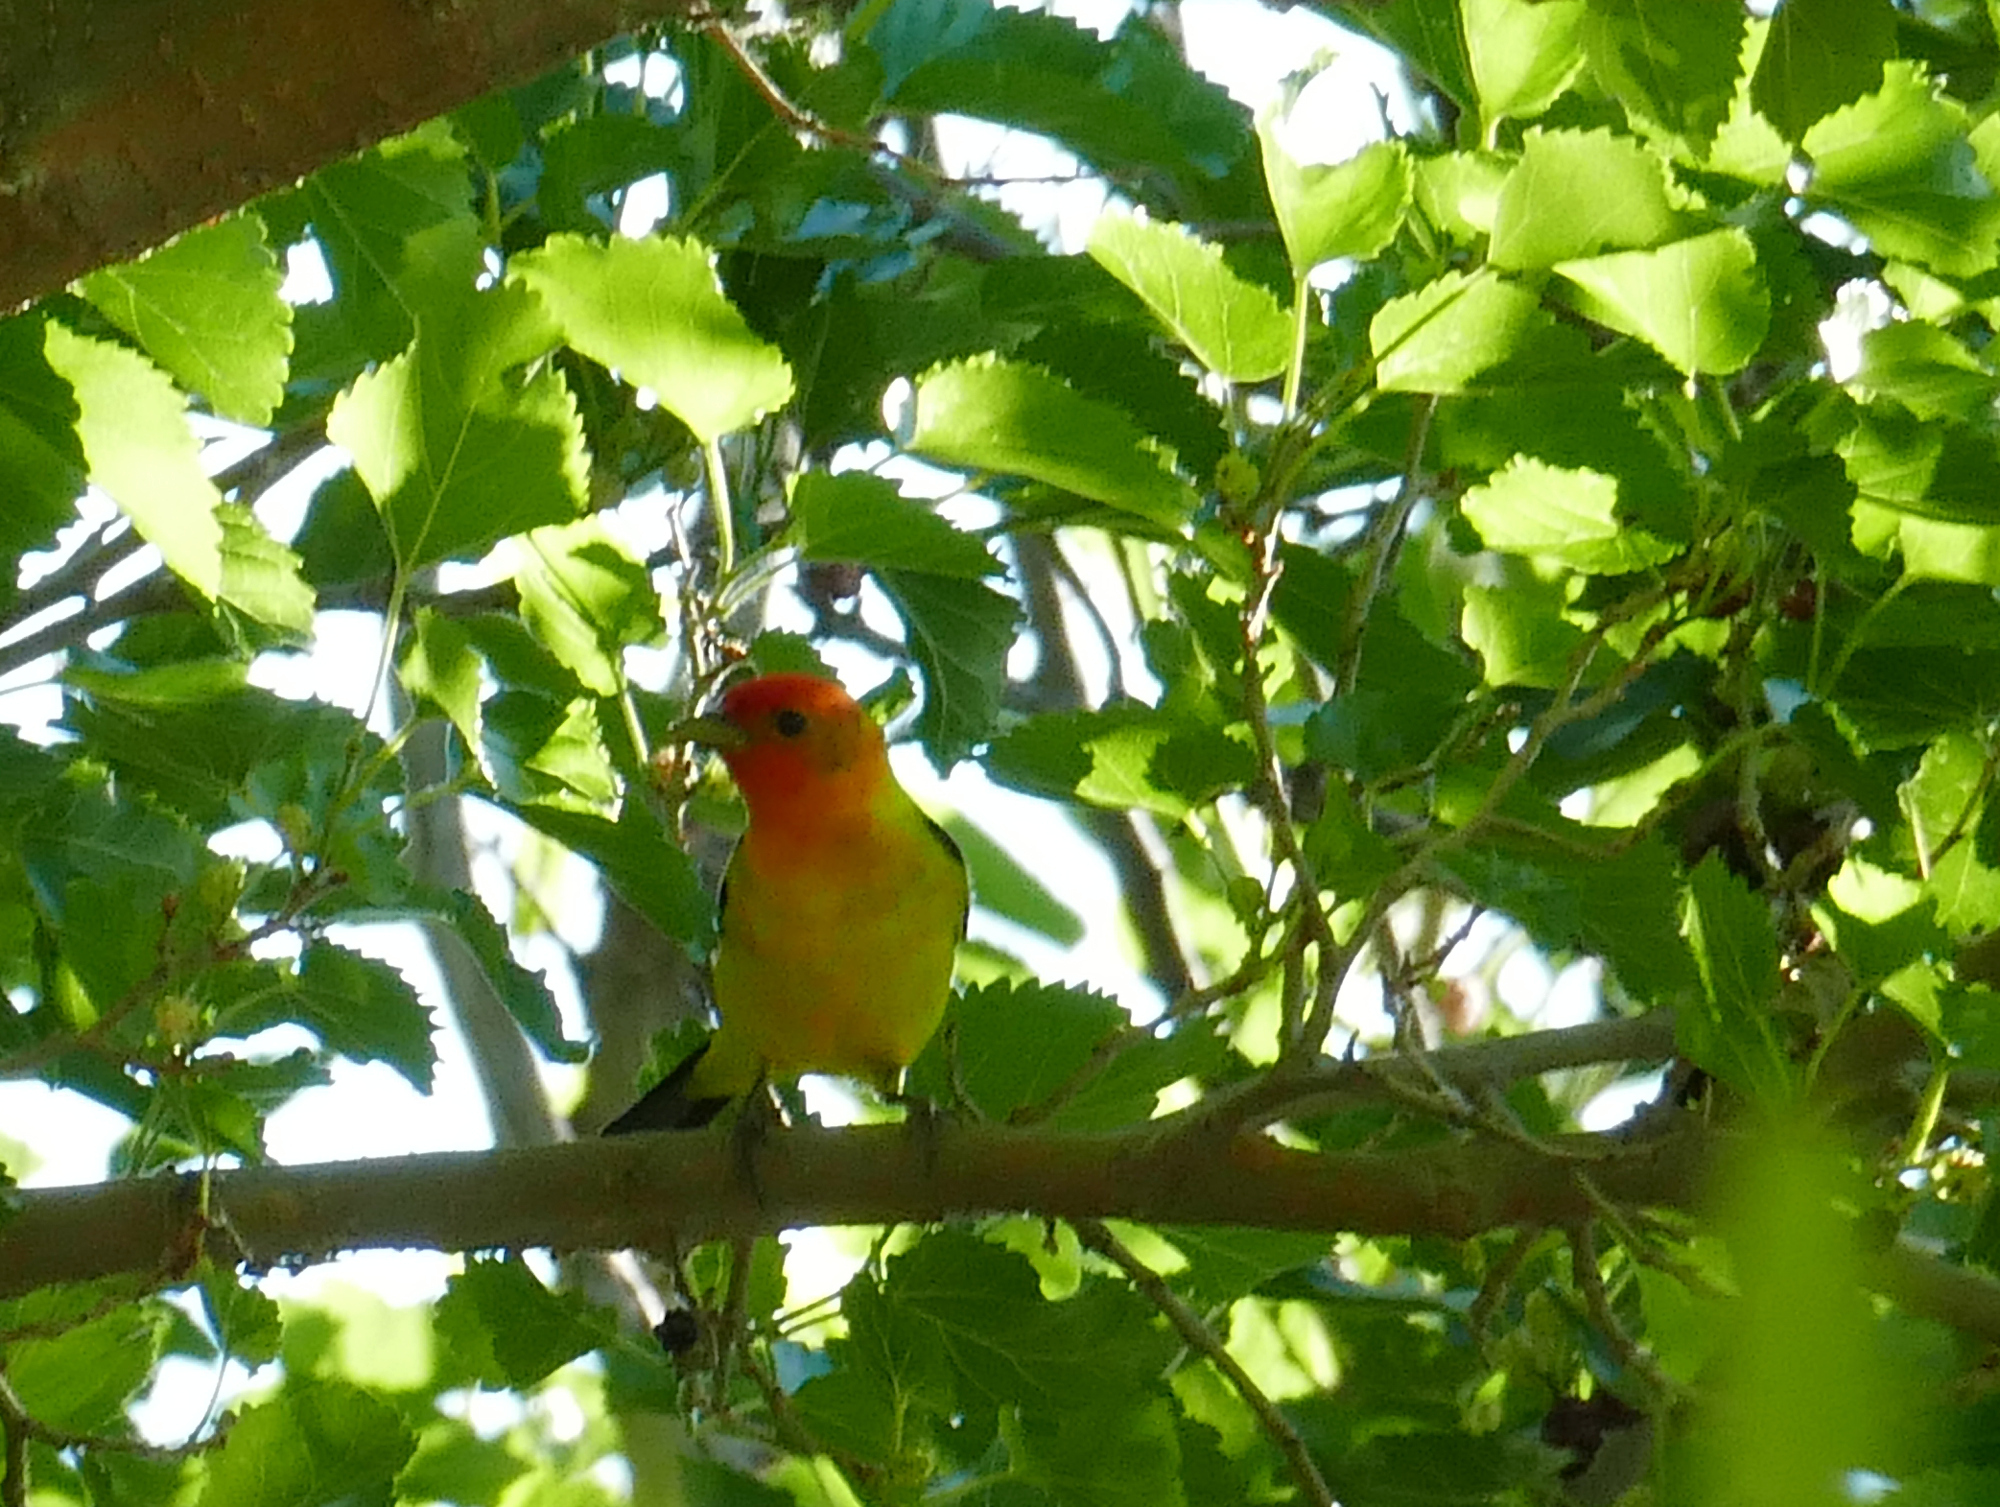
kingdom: Animalia
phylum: Chordata
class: Aves
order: Passeriformes
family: Cardinalidae
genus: Piranga
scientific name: Piranga ludoviciana
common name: Western tanager
